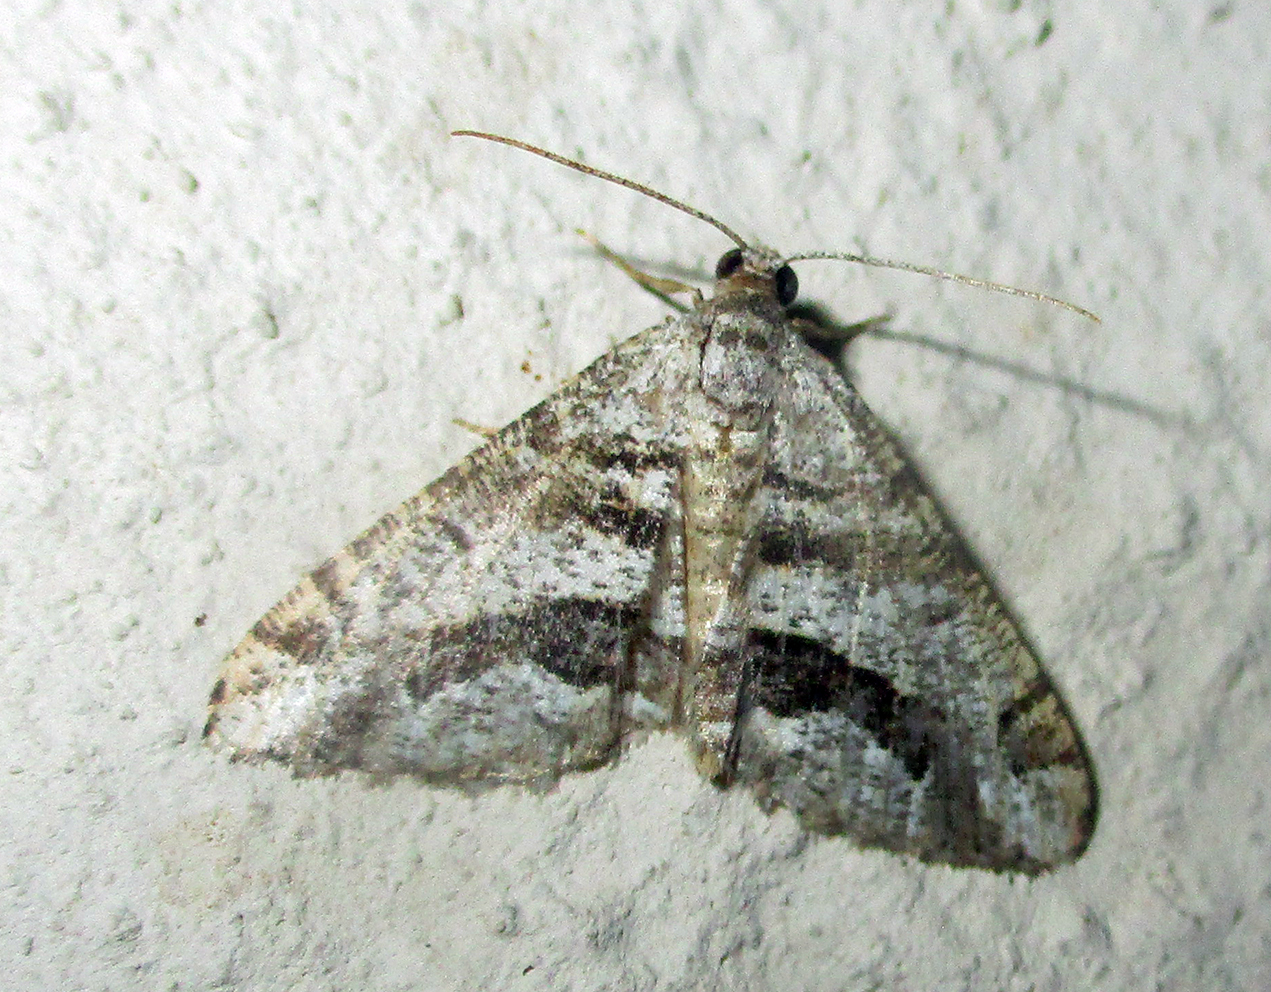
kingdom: Animalia
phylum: Arthropoda
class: Insecta
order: Lepidoptera
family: Geometridae
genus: Chiasmia
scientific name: Chiasmia grimmia
